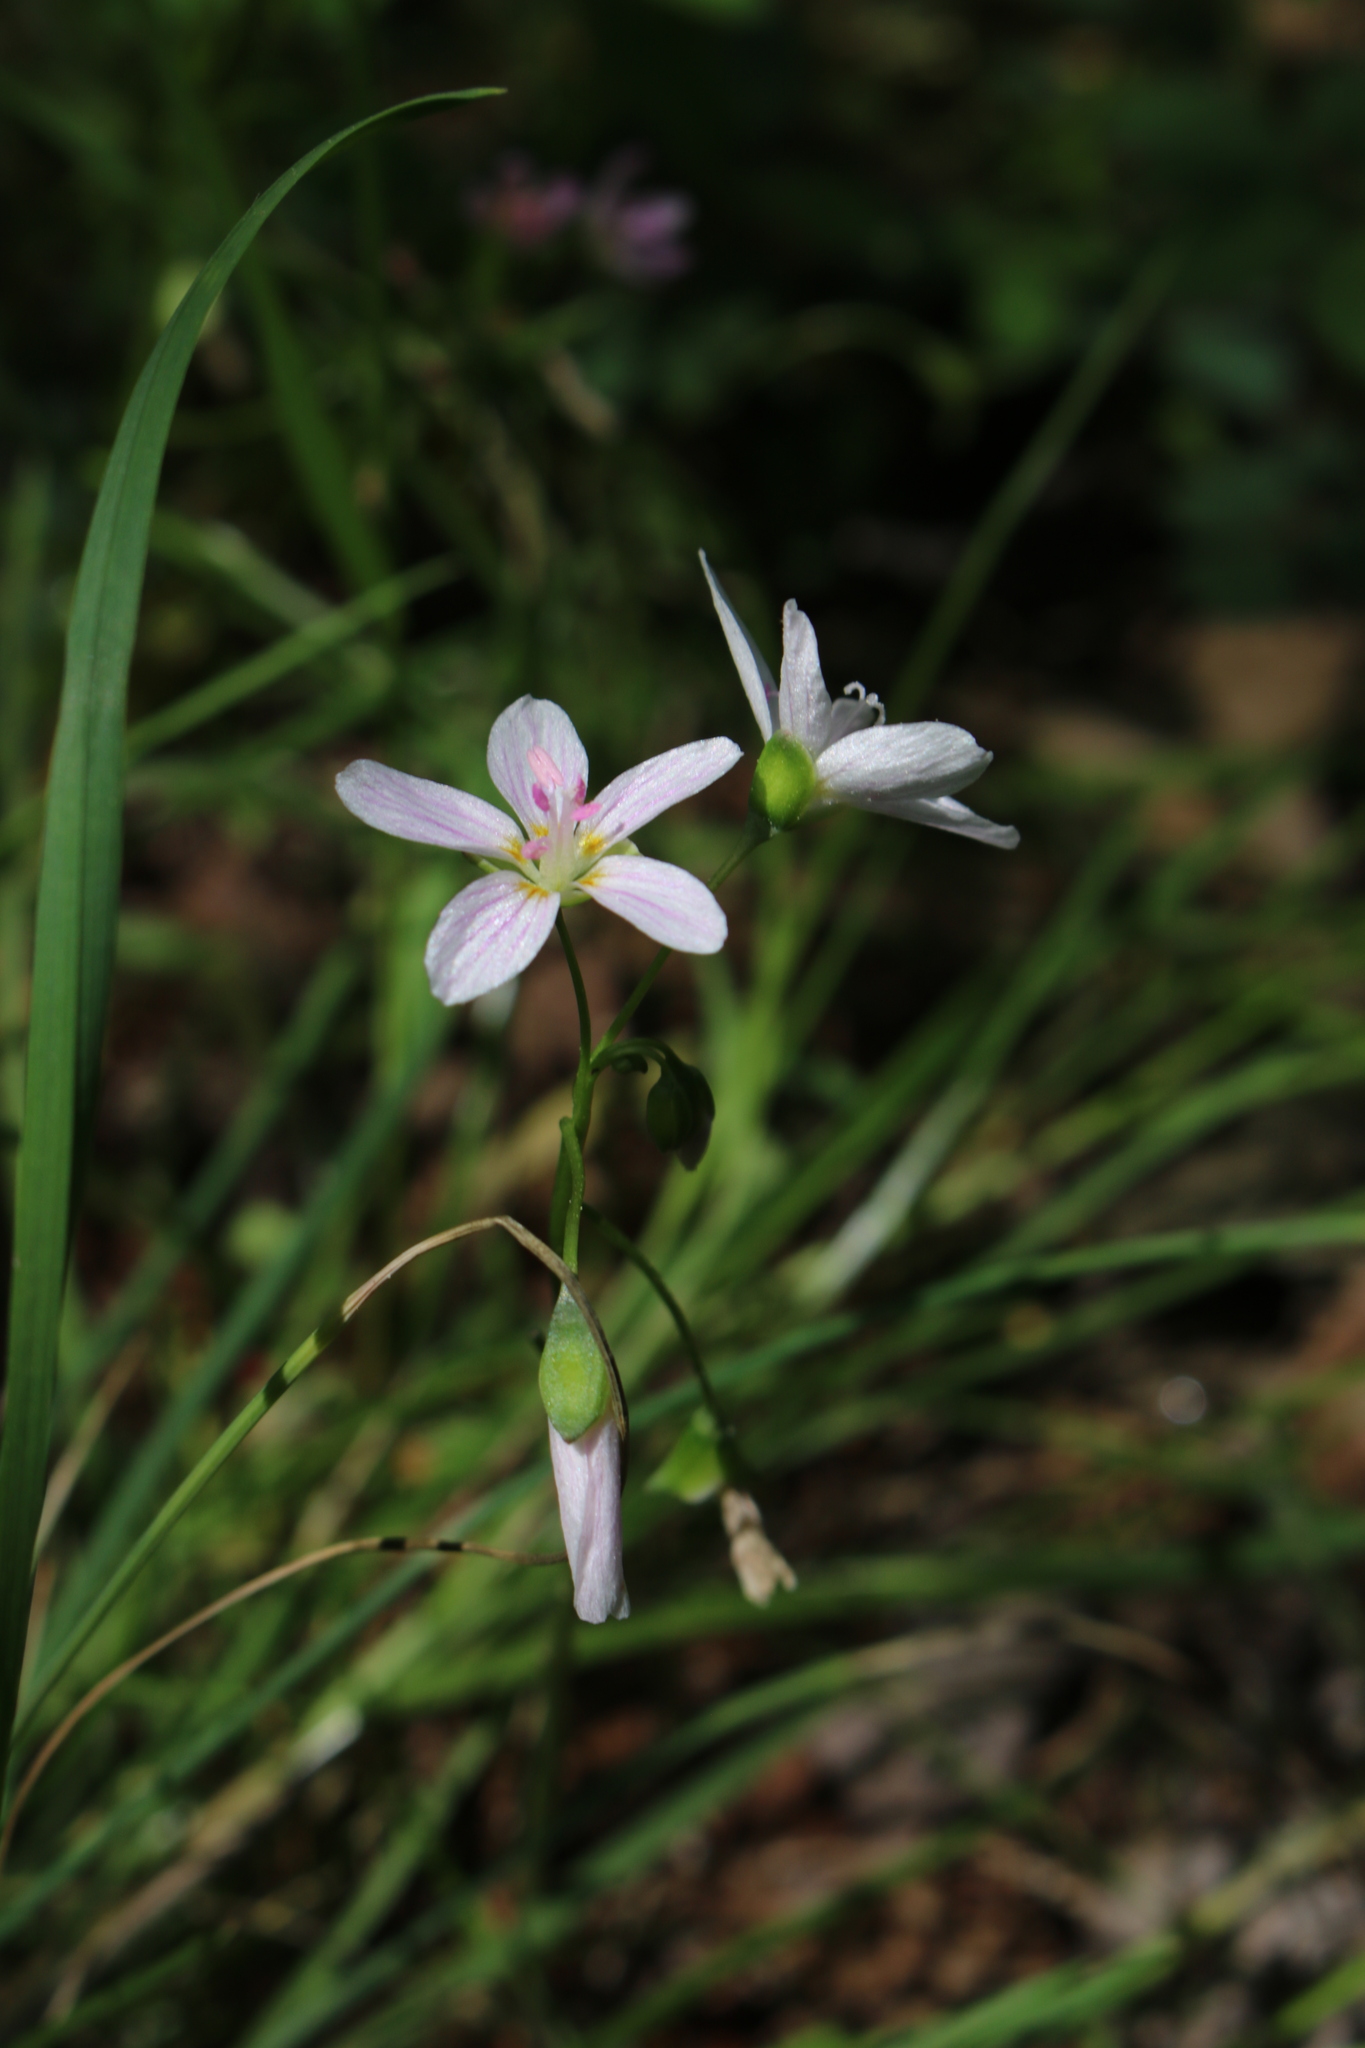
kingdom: Plantae
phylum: Tracheophyta
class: Magnoliopsida
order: Caryophyllales
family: Montiaceae
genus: Claytonia
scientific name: Claytonia virginica
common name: Virginia springbeauty
